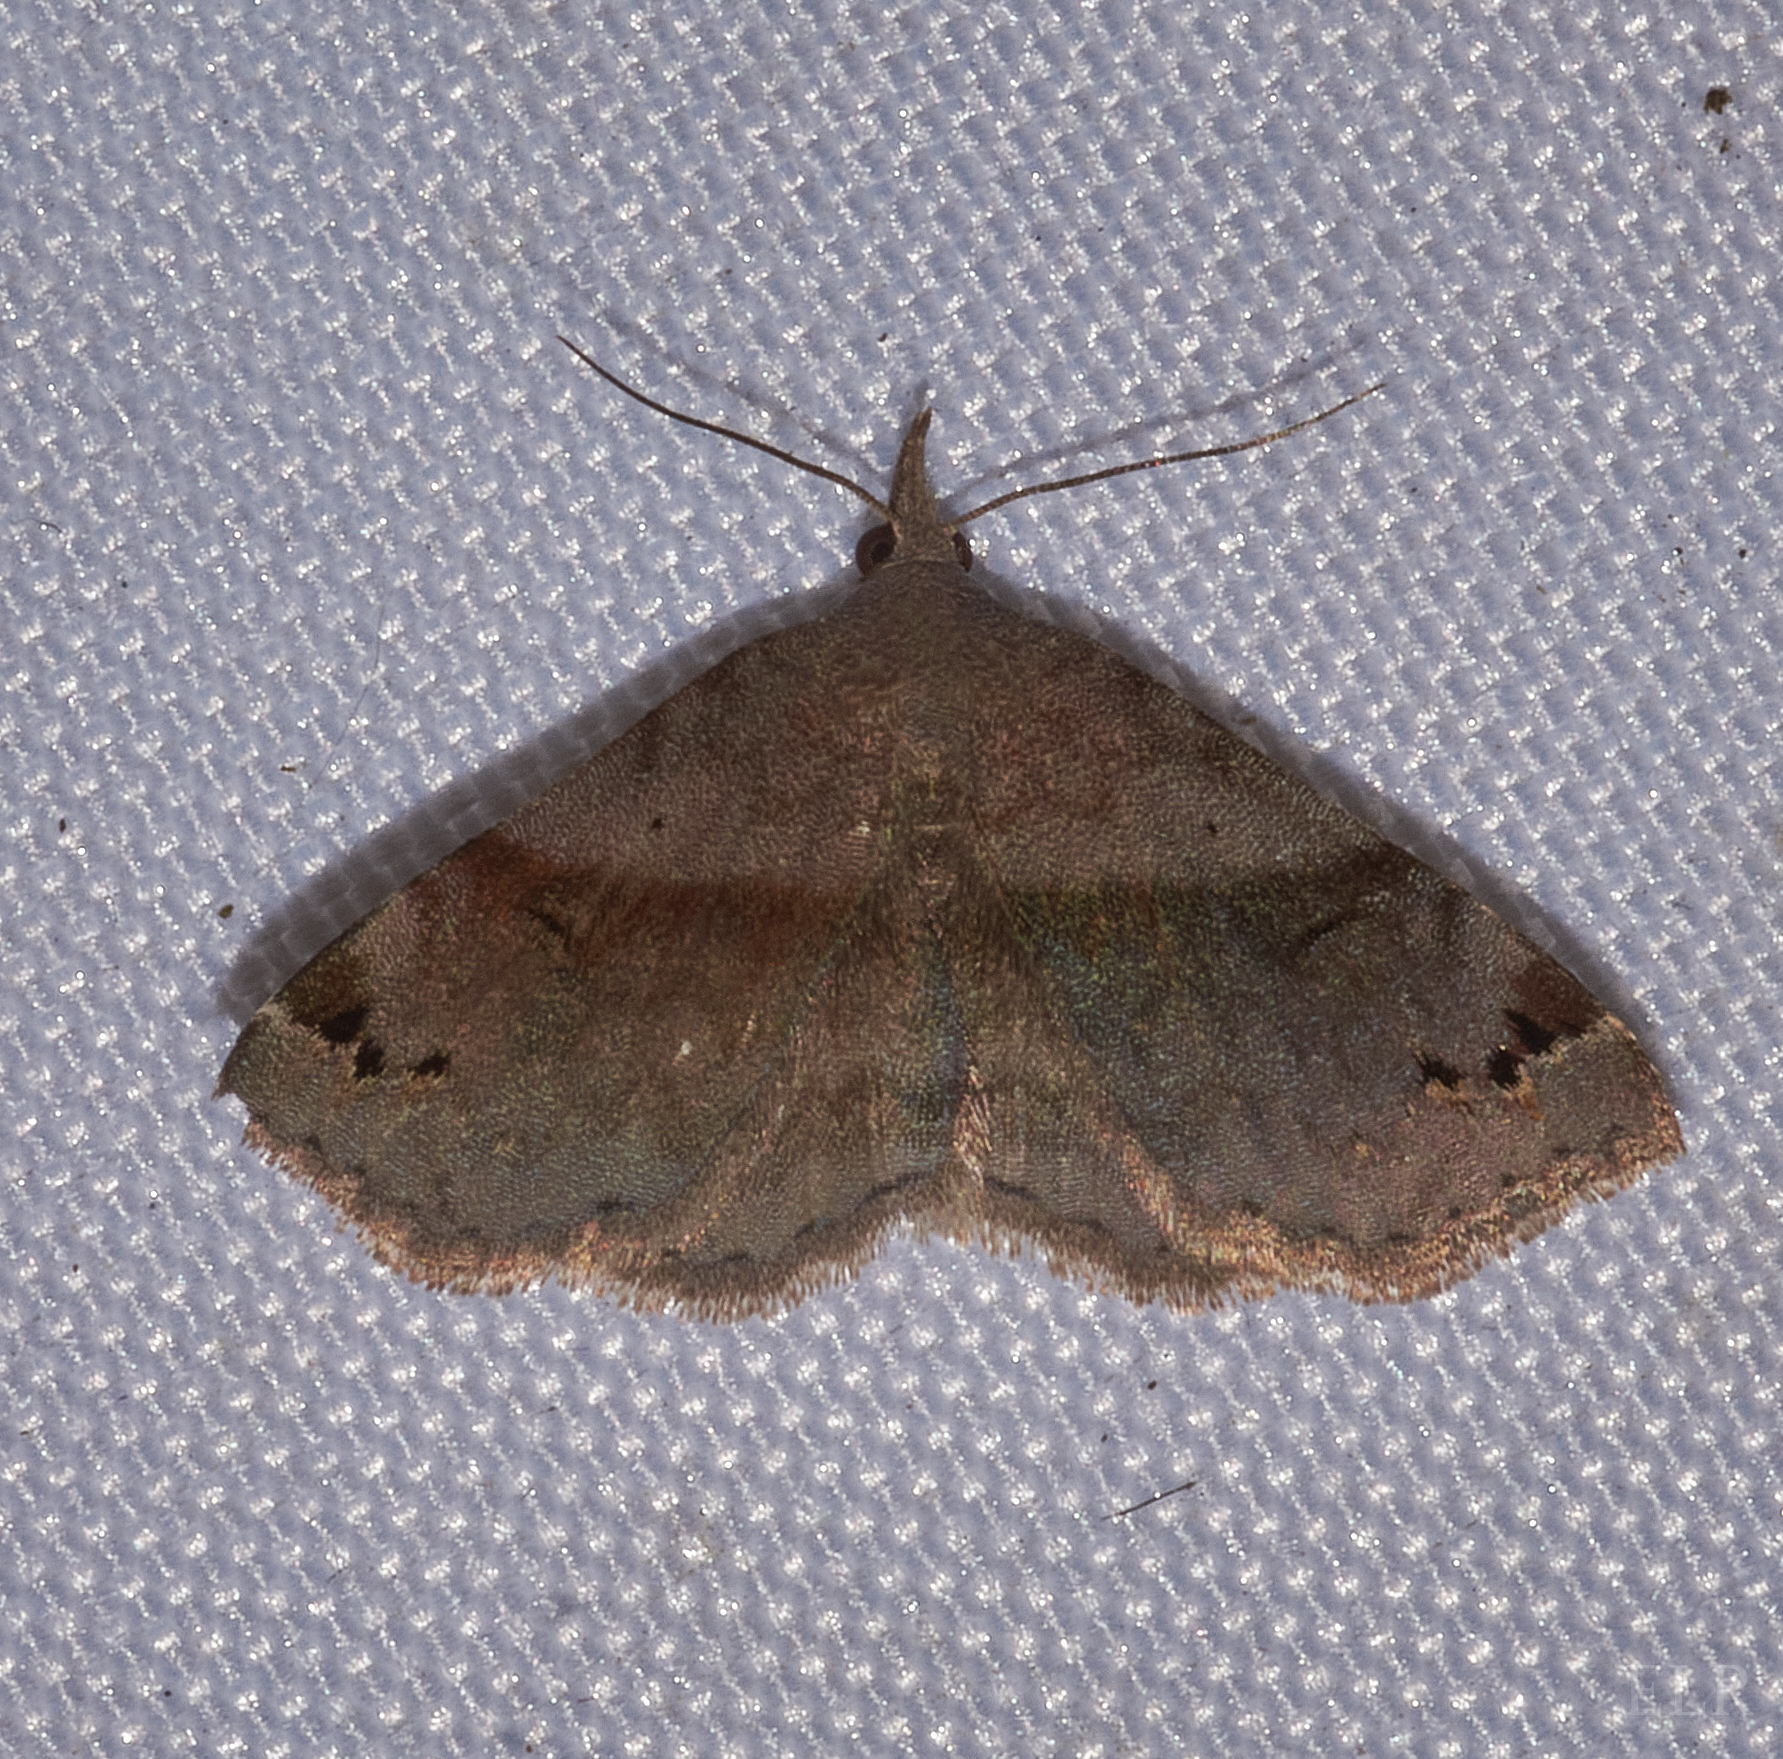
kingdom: Animalia
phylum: Arthropoda
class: Insecta
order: Lepidoptera
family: Erebidae
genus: Spargaloma
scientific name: Spargaloma sexpunctata
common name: Six-spotted gray
